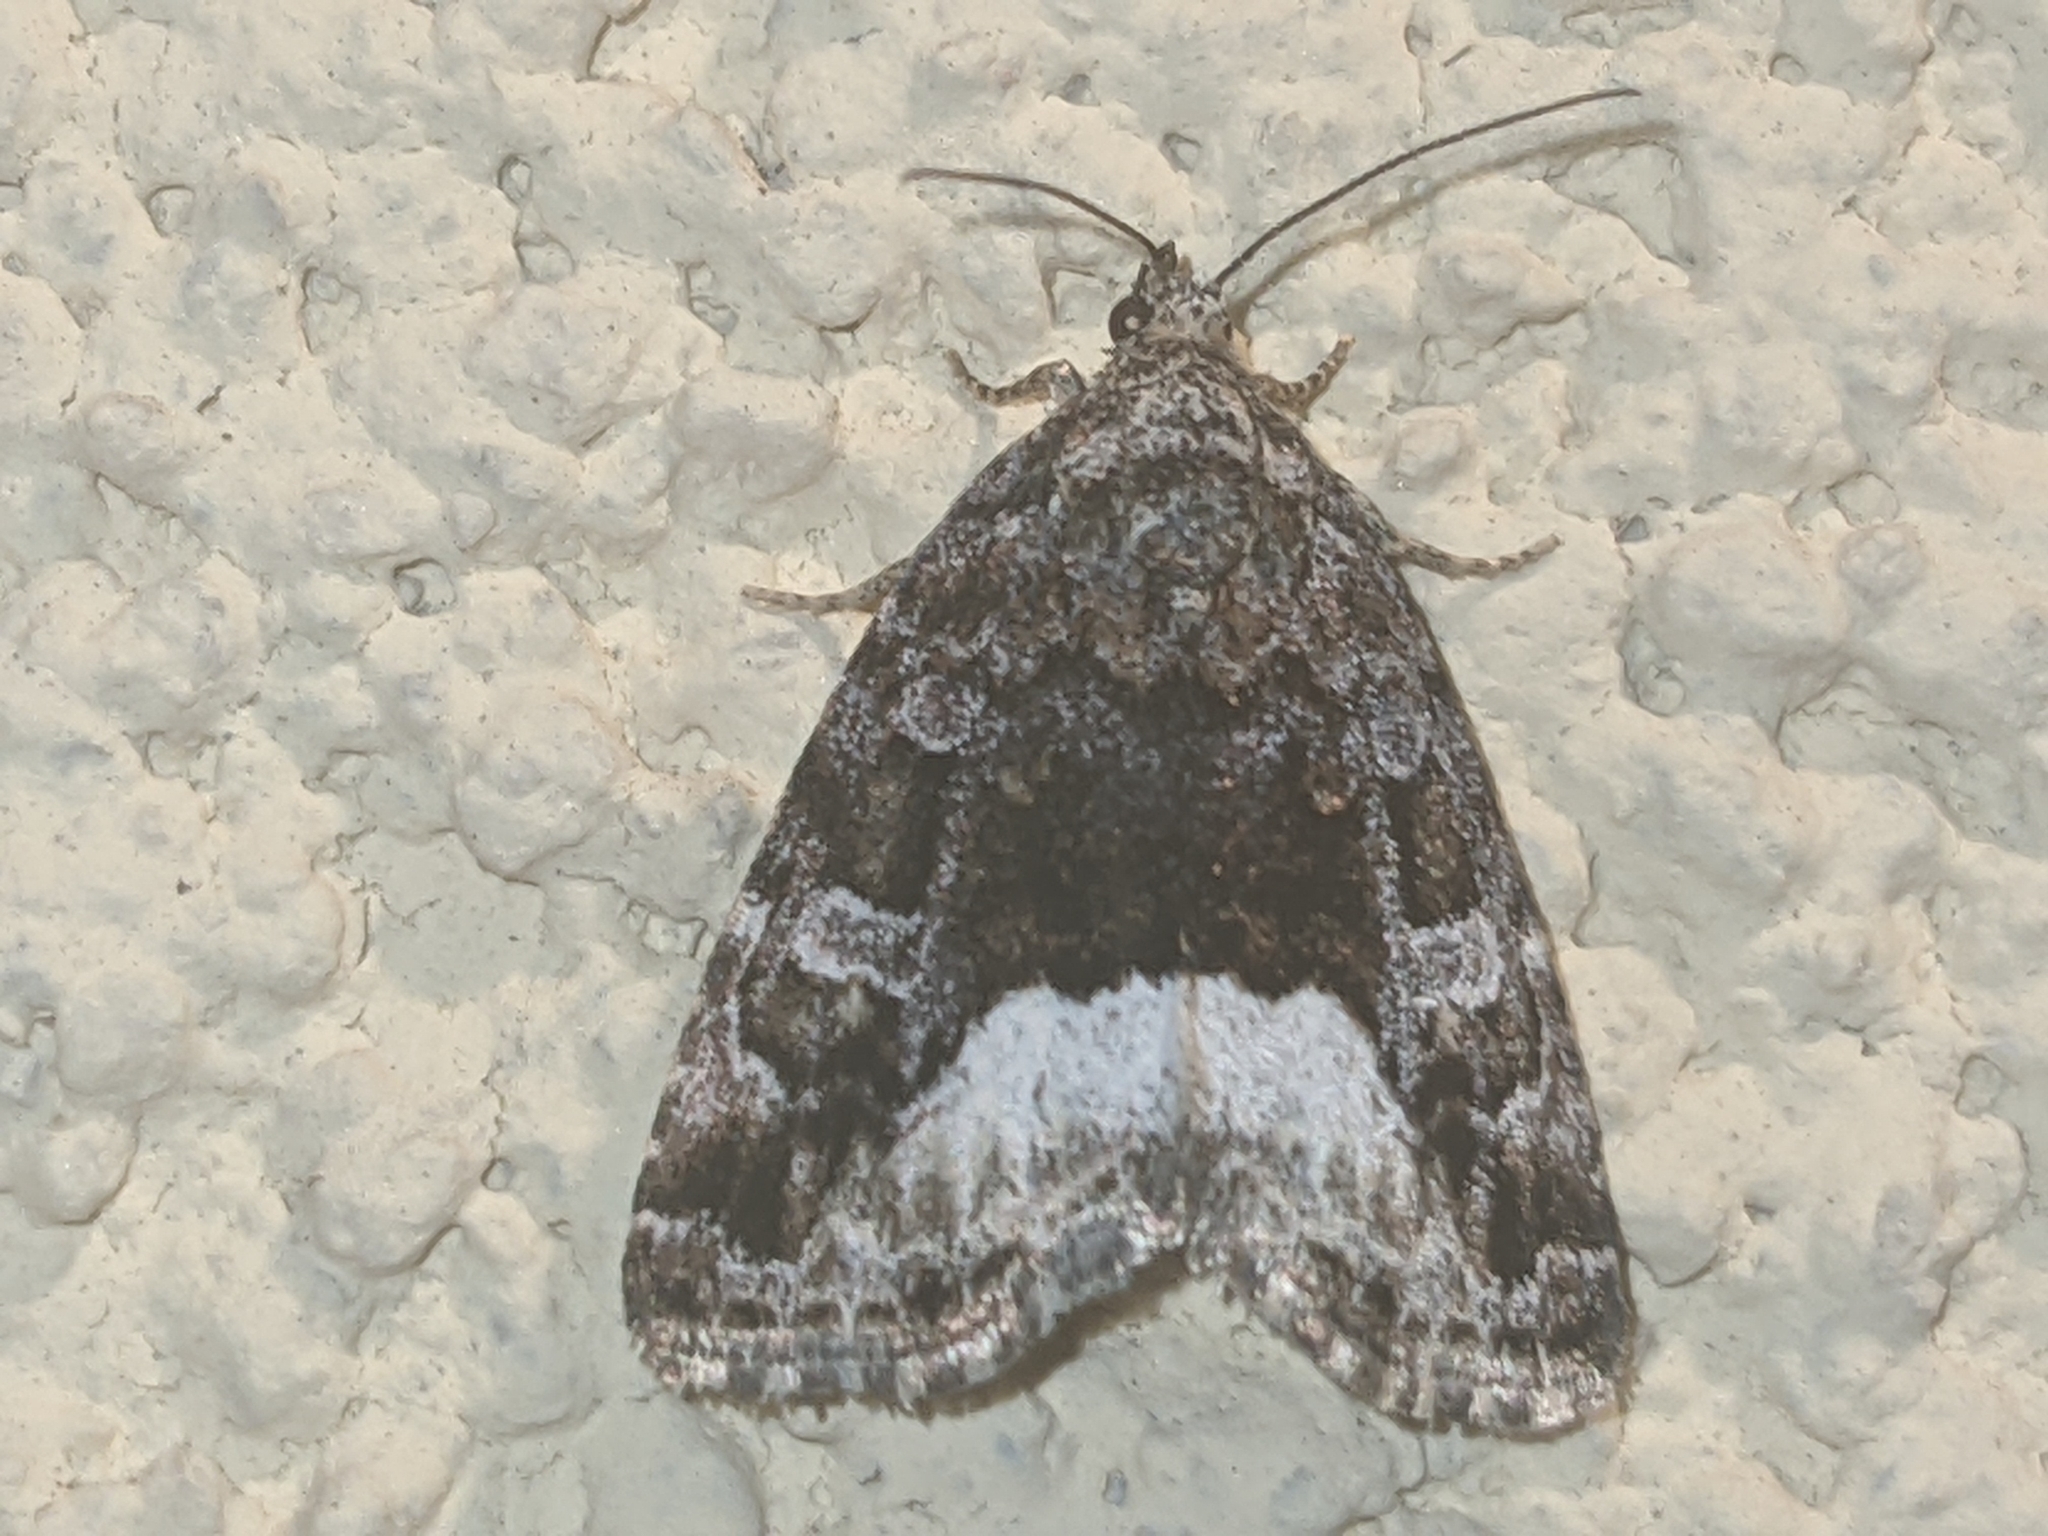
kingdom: Animalia
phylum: Arthropoda
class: Insecta
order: Lepidoptera
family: Noctuidae
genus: Deltote
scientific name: Deltote pygarga
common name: Marbled white spot
